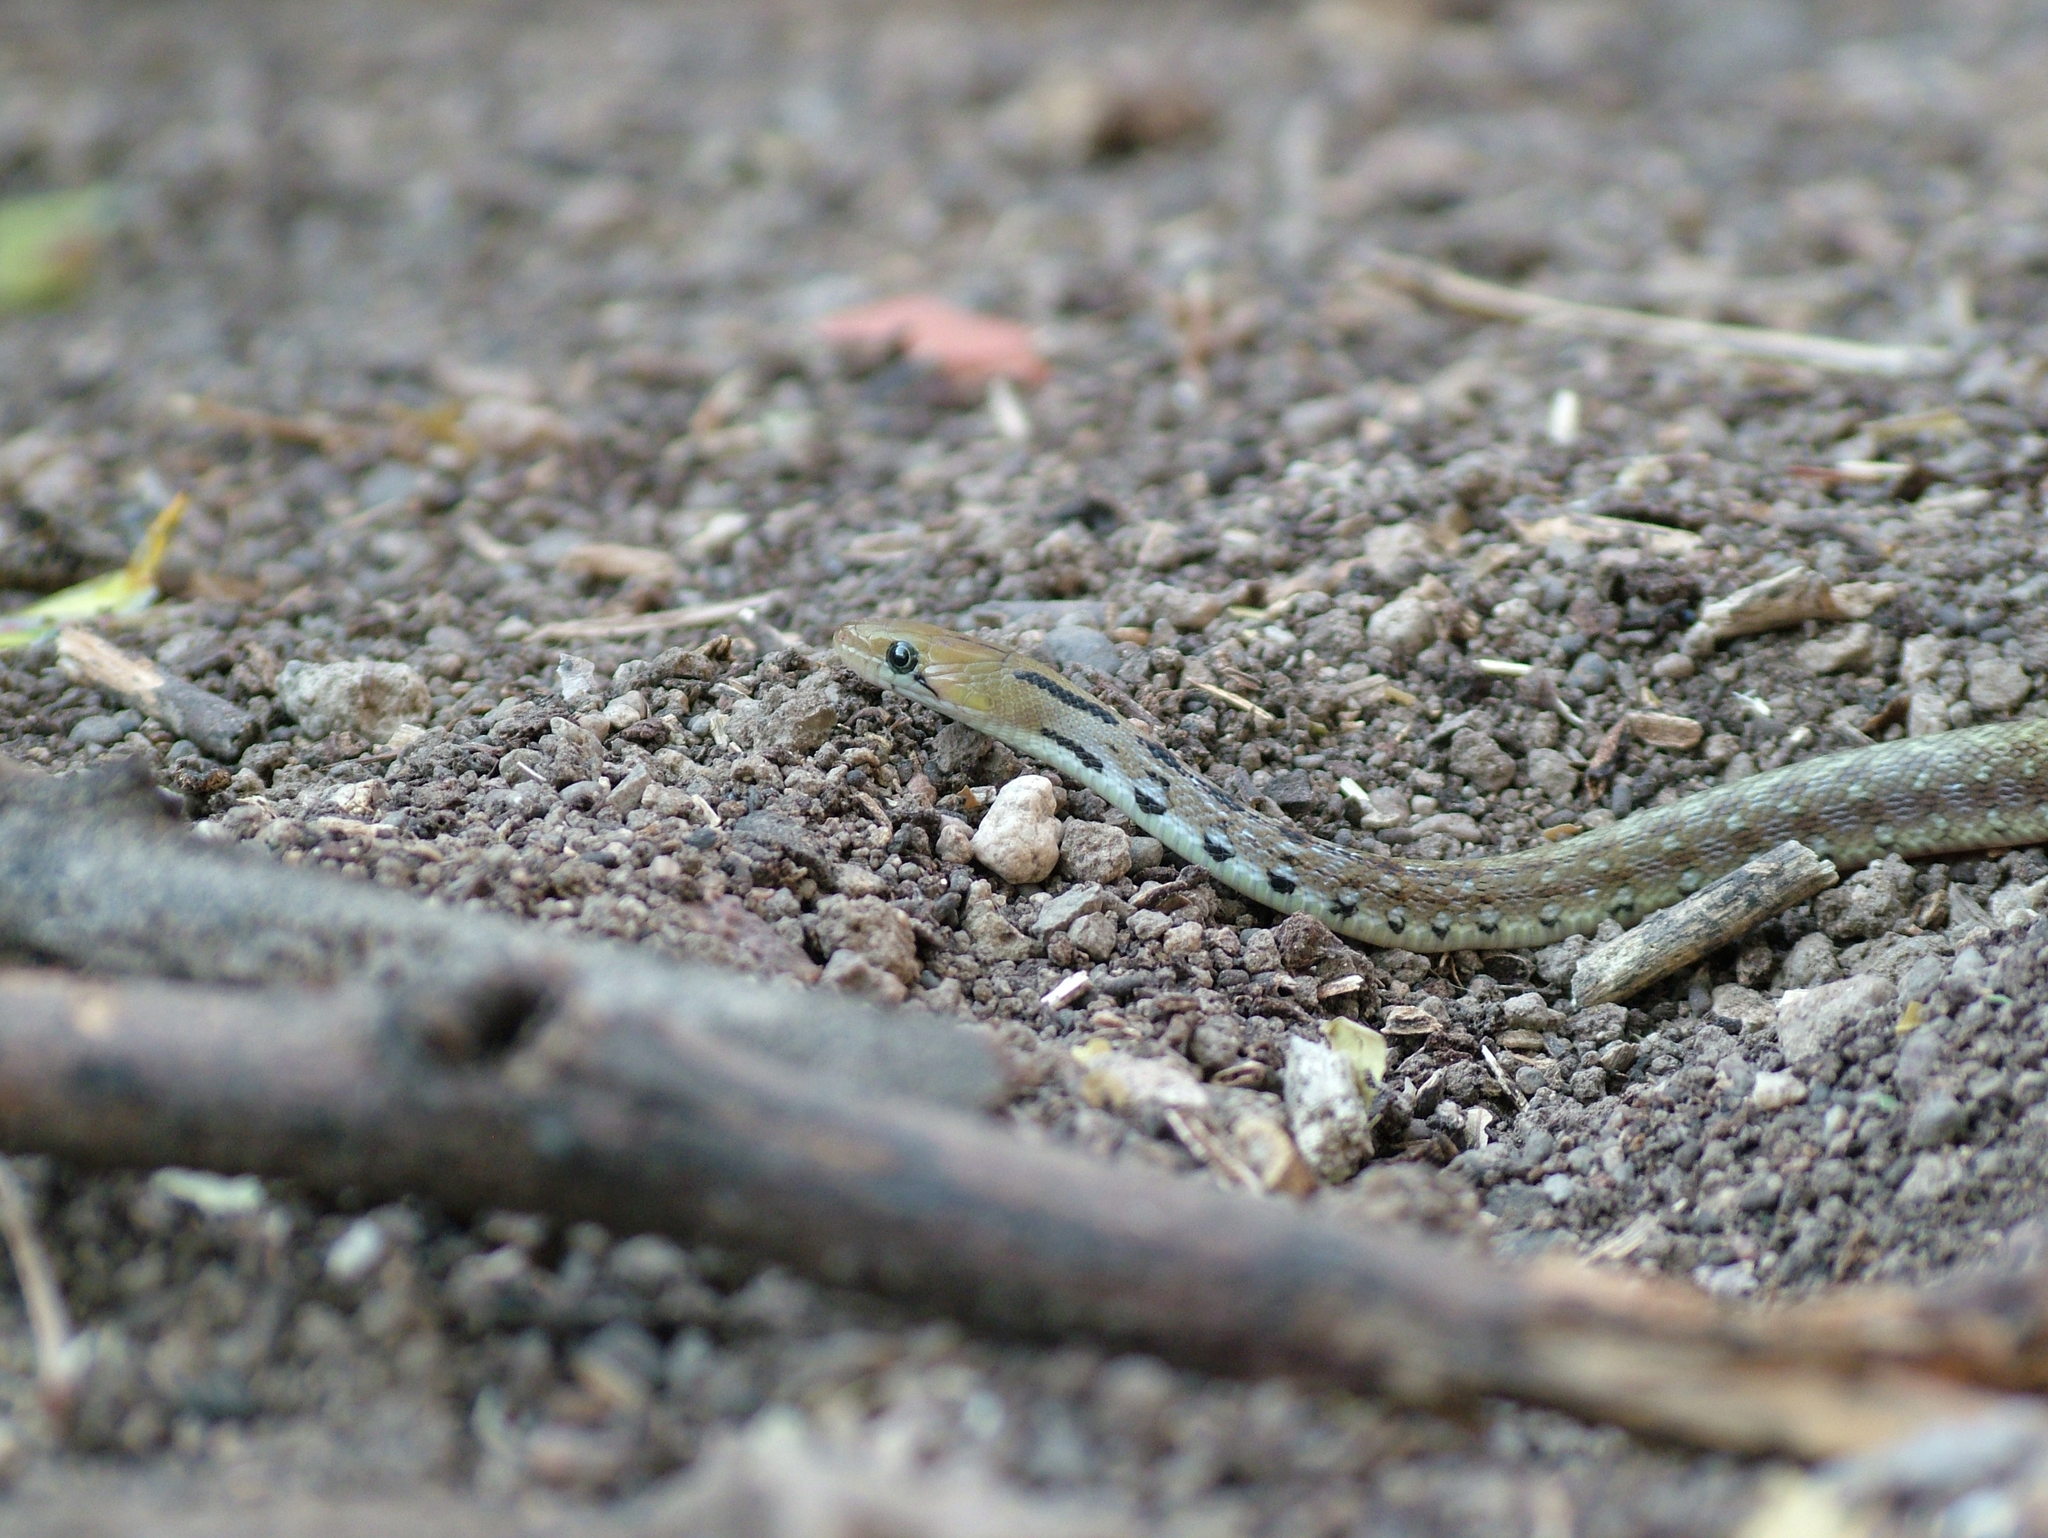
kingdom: Animalia
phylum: Chordata
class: Squamata
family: Colubridae
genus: Coelognathus
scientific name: Coelognathus helena
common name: Trinket snake
